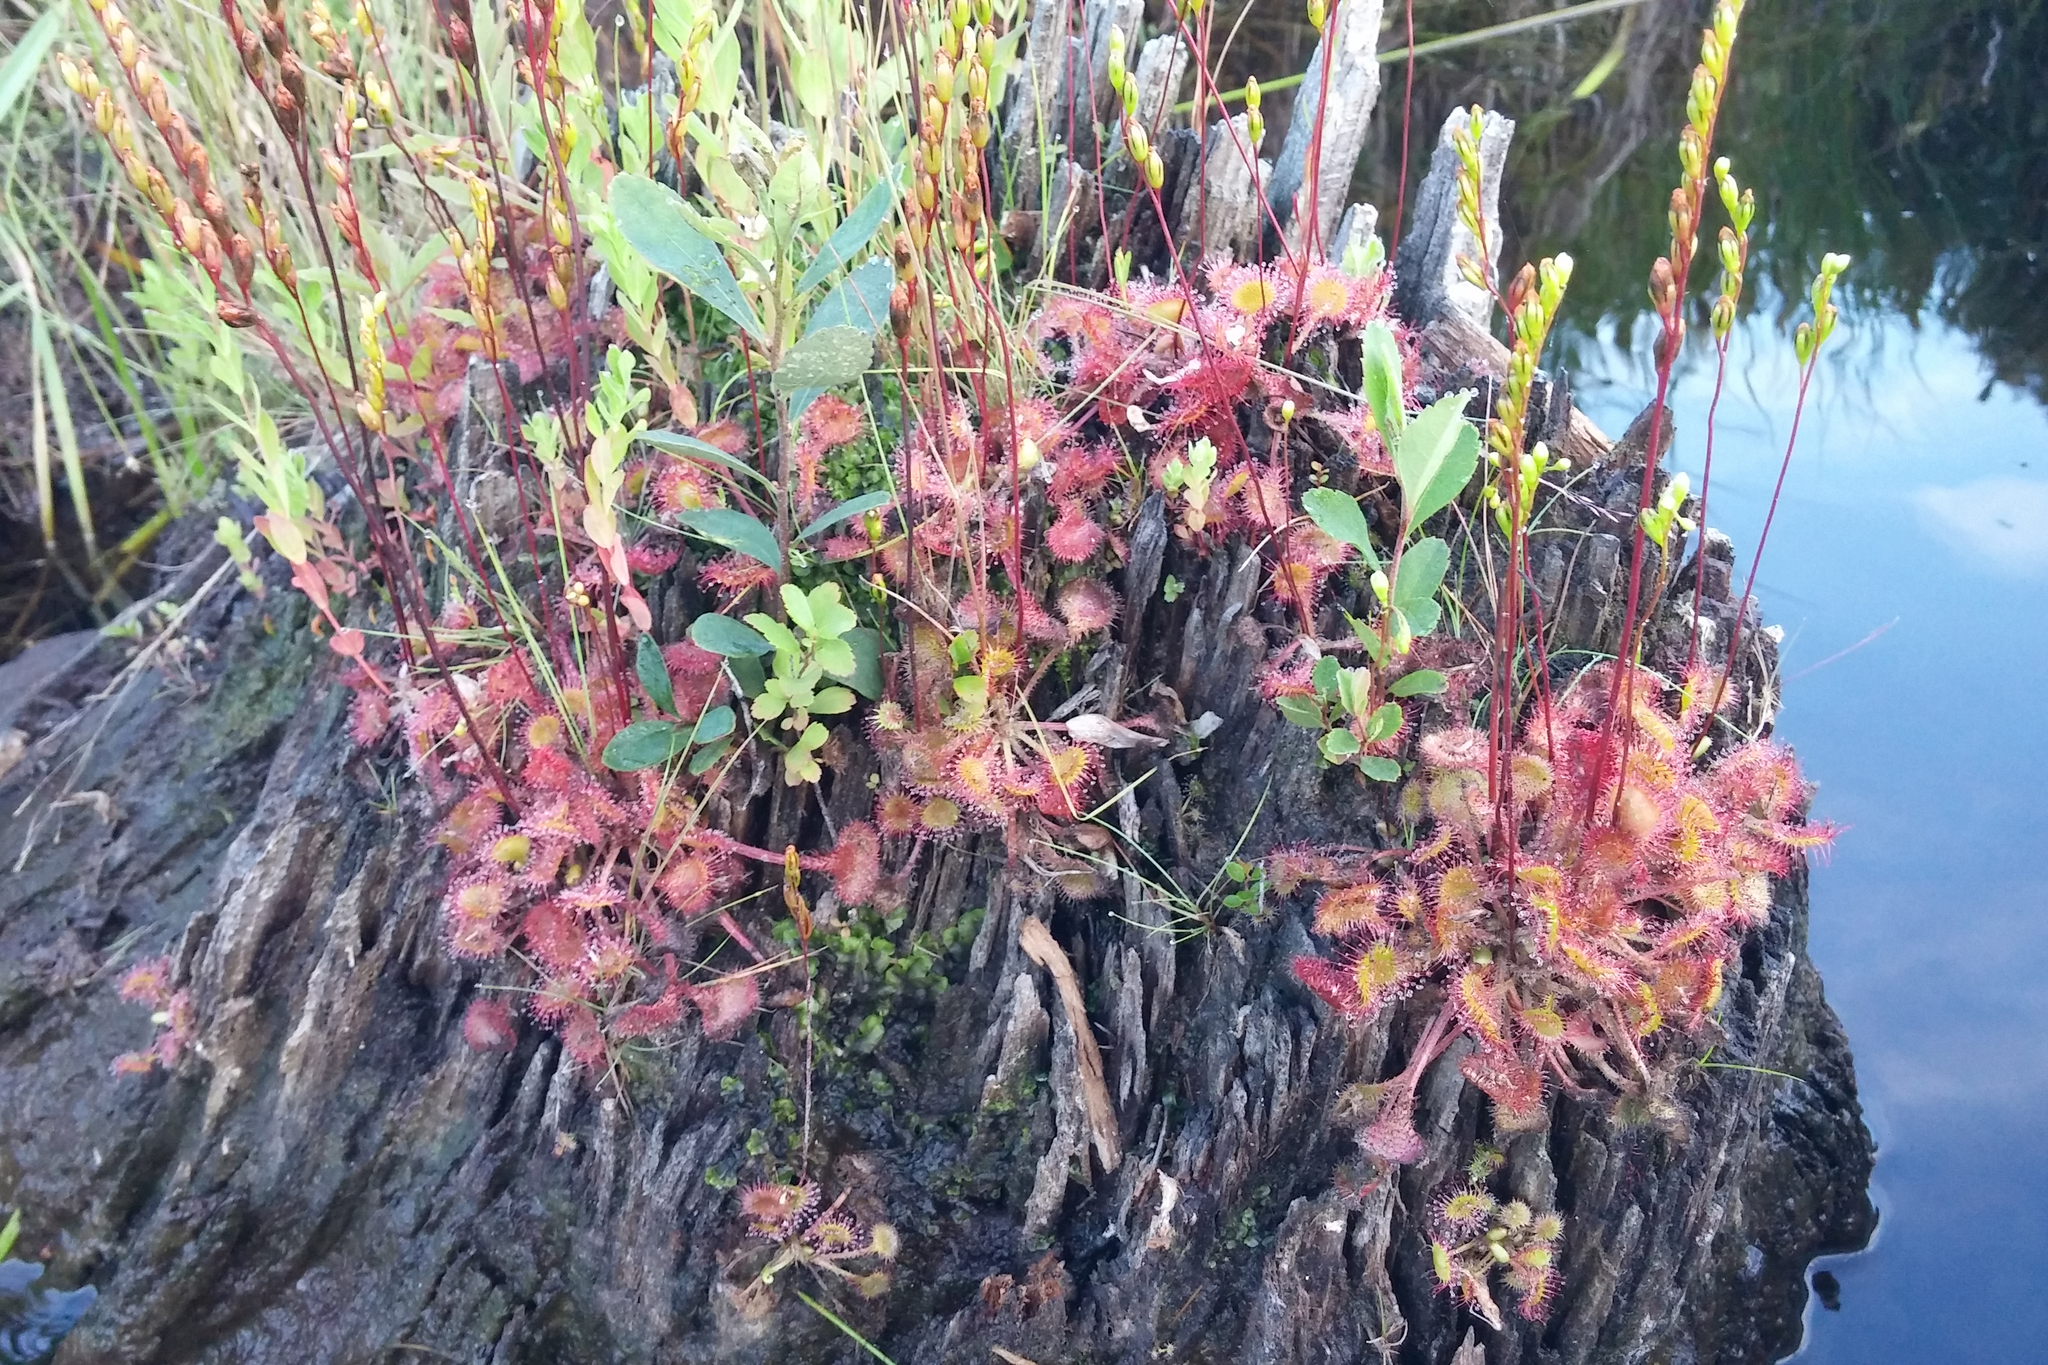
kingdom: Plantae
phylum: Tracheophyta
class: Magnoliopsida
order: Caryophyllales
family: Droseraceae
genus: Drosera
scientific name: Drosera rotundifolia
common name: Round-leaved sundew
